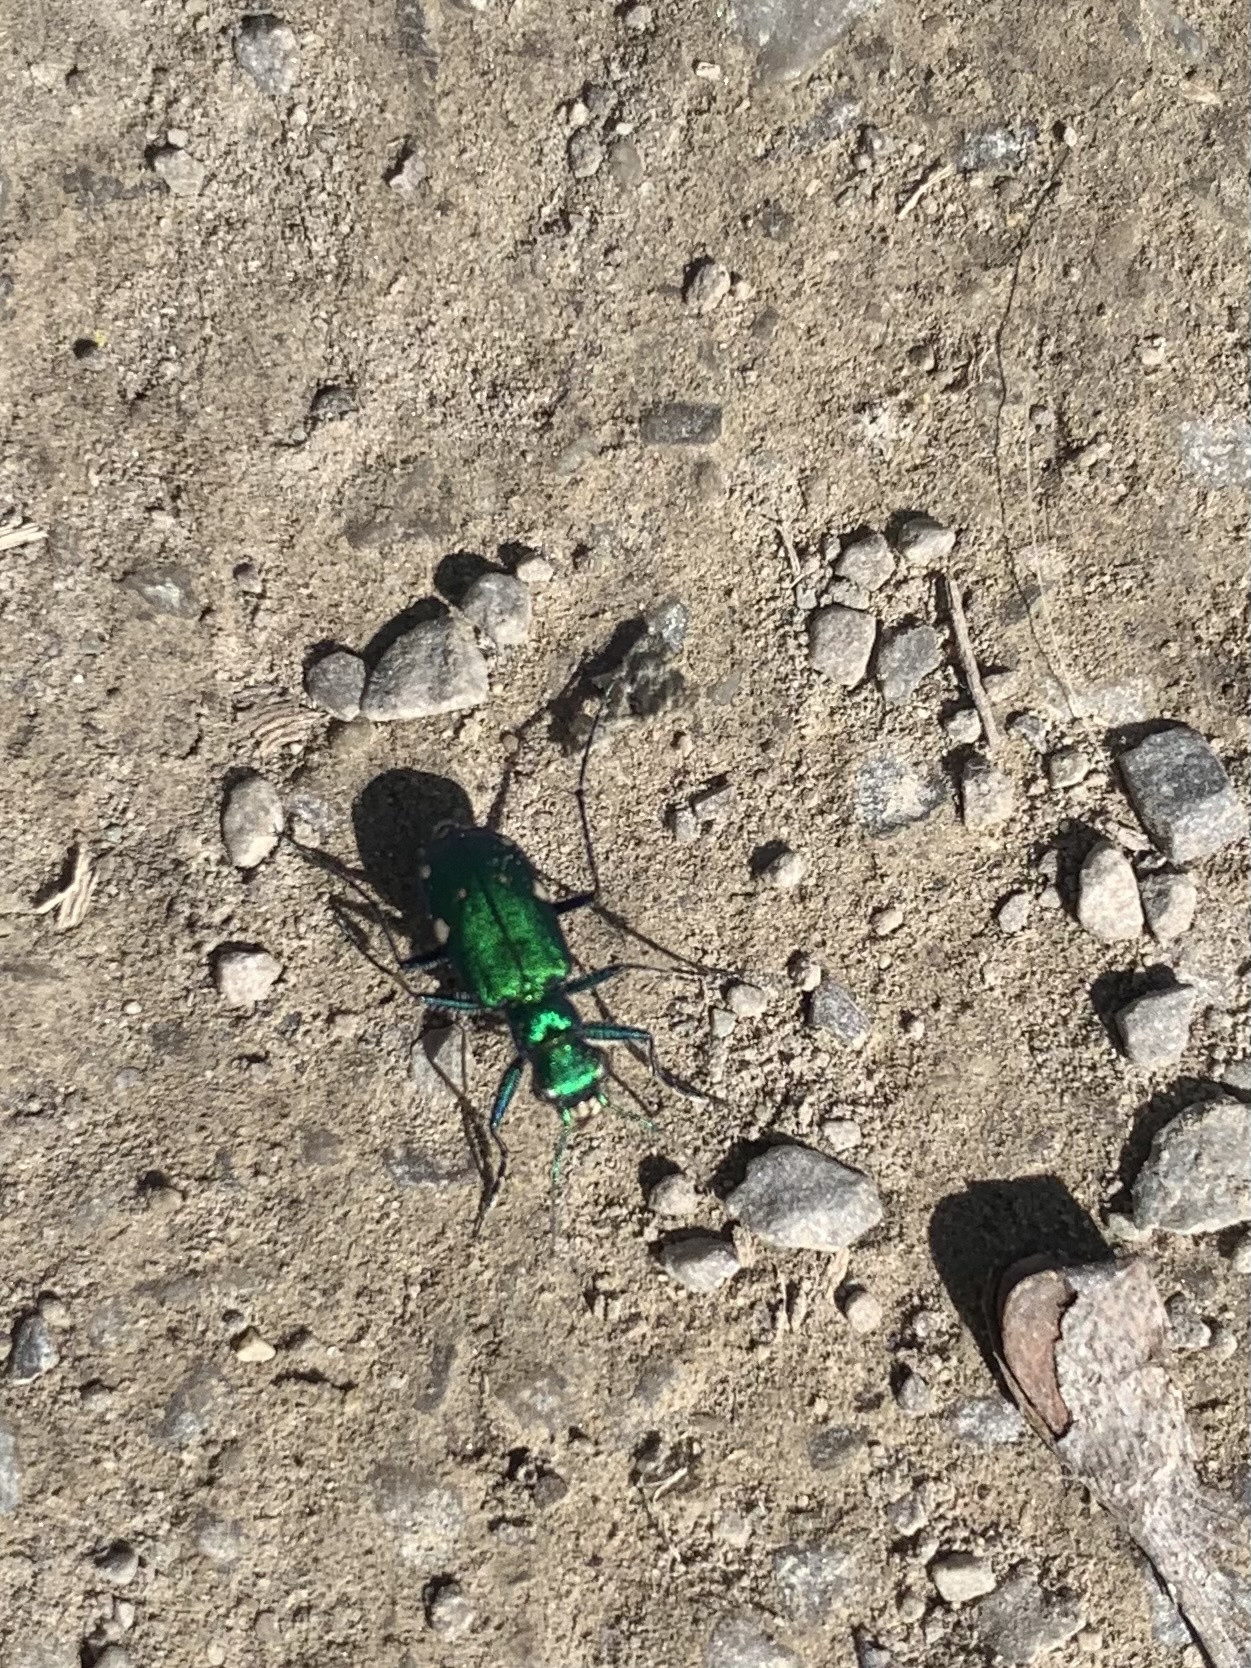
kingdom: Animalia
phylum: Arthropoda
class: Insecta
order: Coleoptera
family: Carabidae
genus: Cicindela
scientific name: Cicindela sexguttata
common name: Six-spotted tiger beetle
